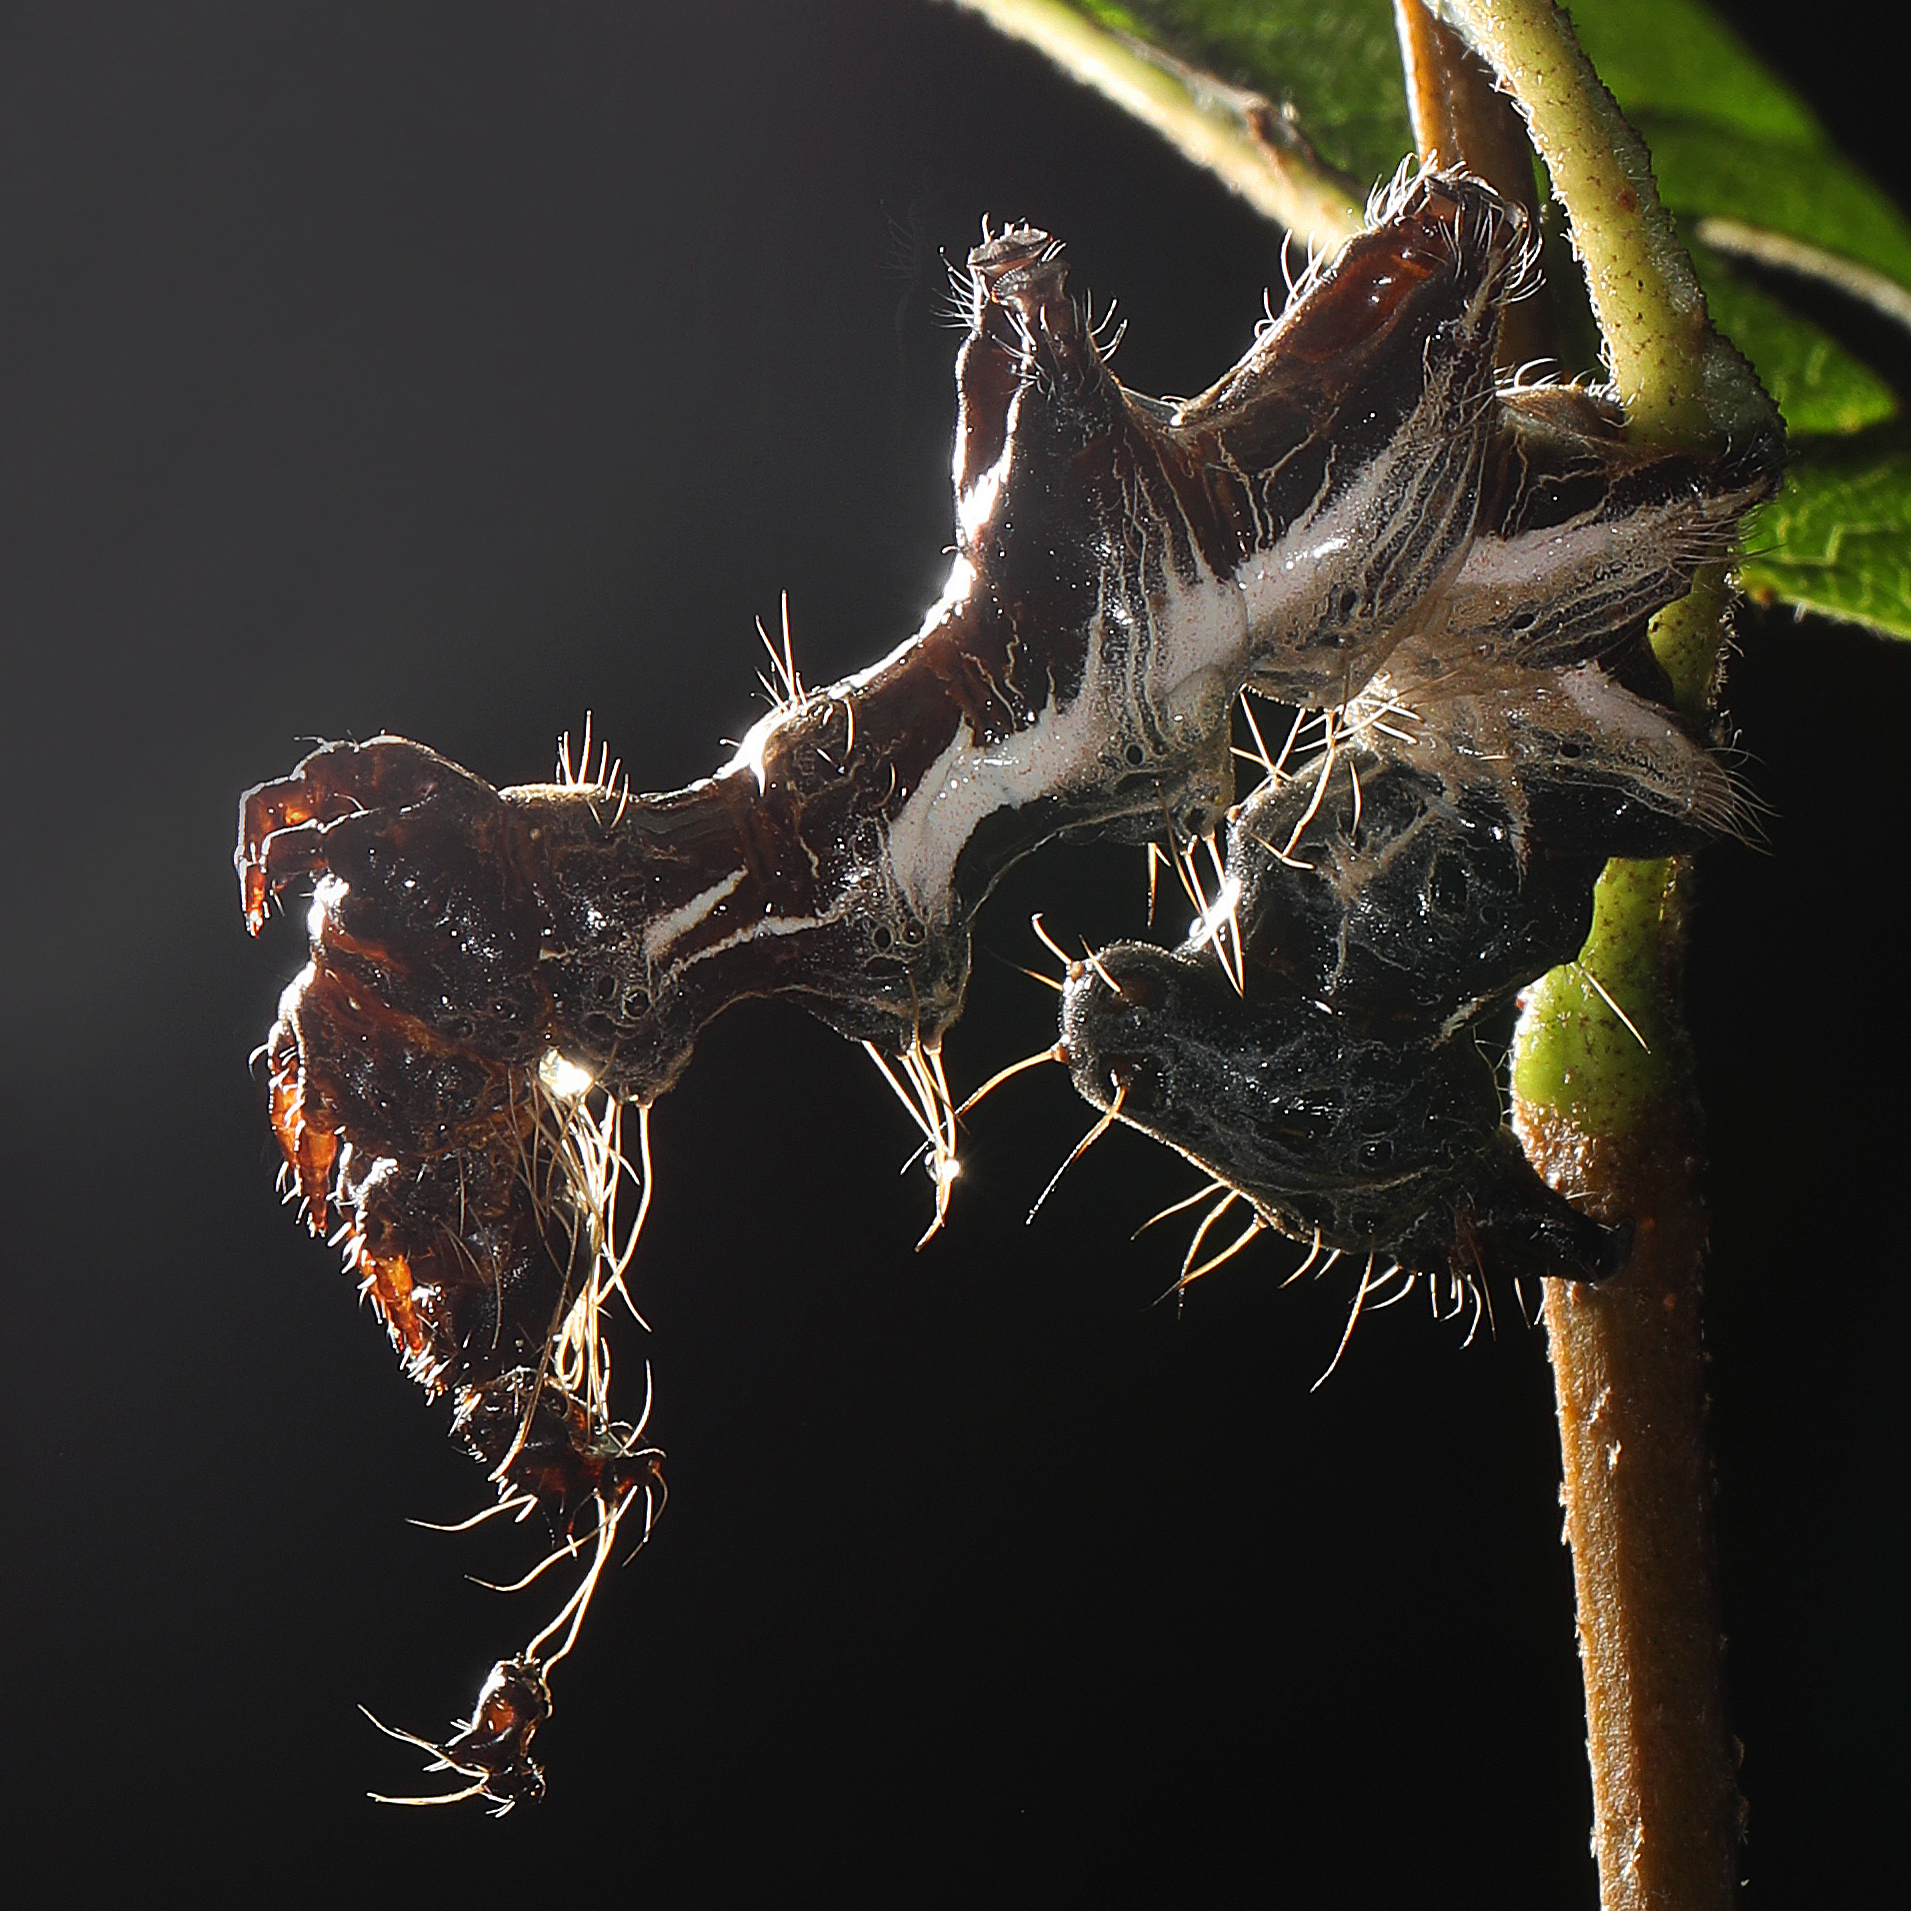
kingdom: Animalia
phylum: Arthropoda
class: Insecta
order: Lepidoptera
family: Noctuidae
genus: Harrisimemna
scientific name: Harrisimemna trisignata
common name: Harris threespot
